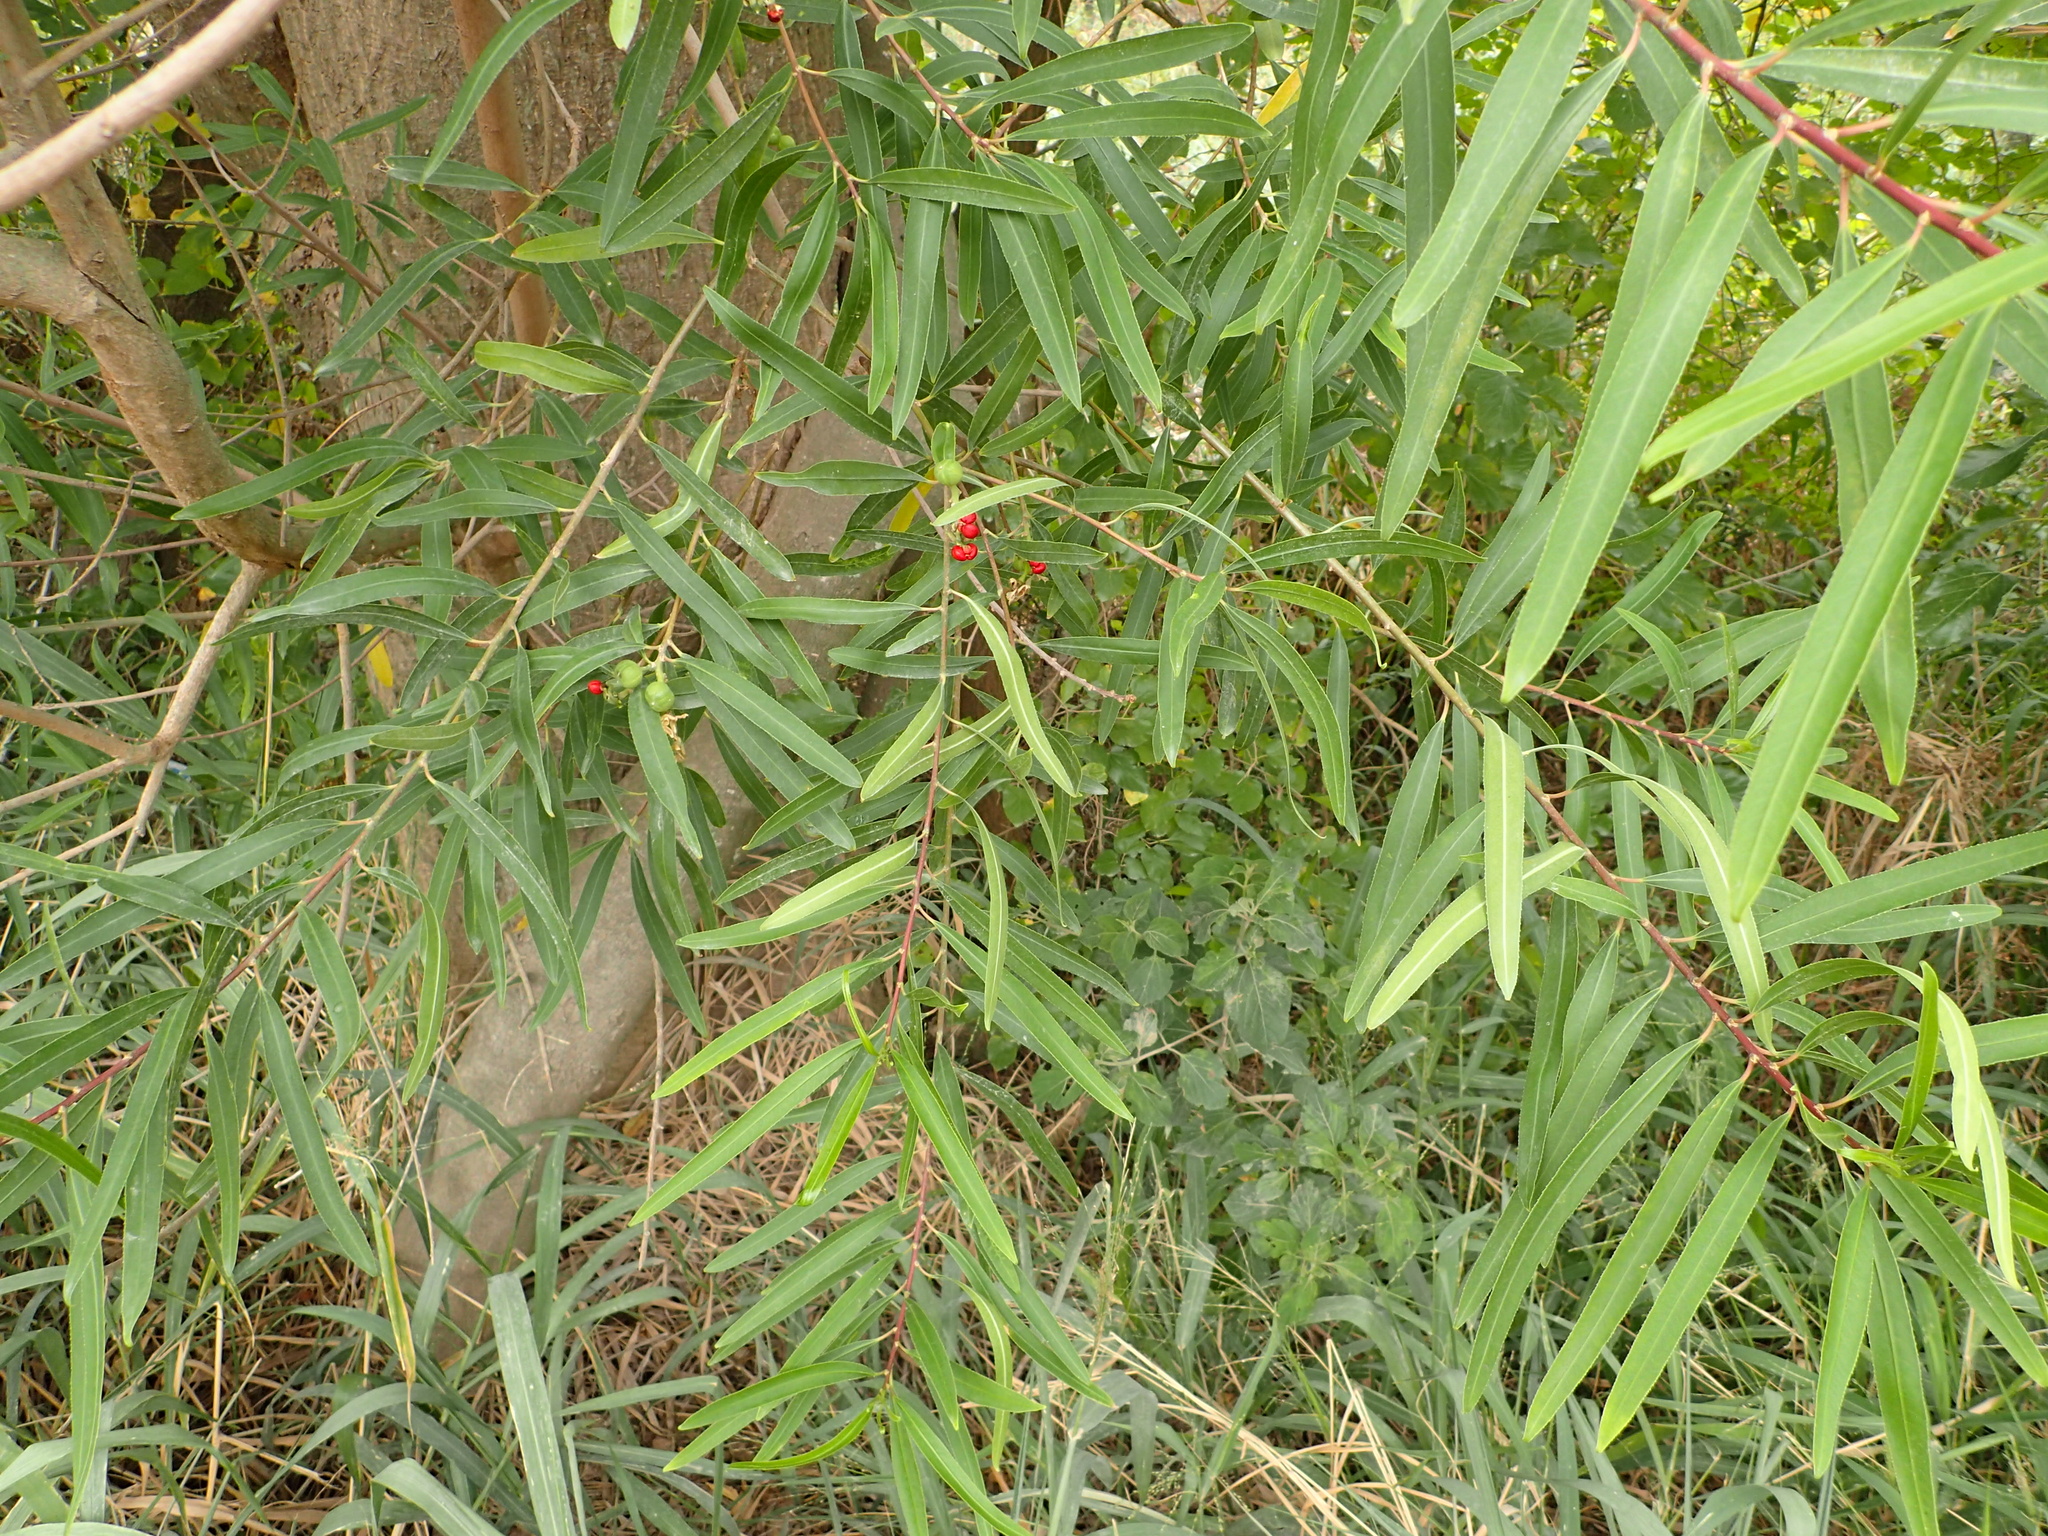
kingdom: Plantae
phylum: Tracheophyta
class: Magnoliopsida
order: Malpighiales
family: Euphorbiaceae
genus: Sapium
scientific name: Sapium haematospermum
